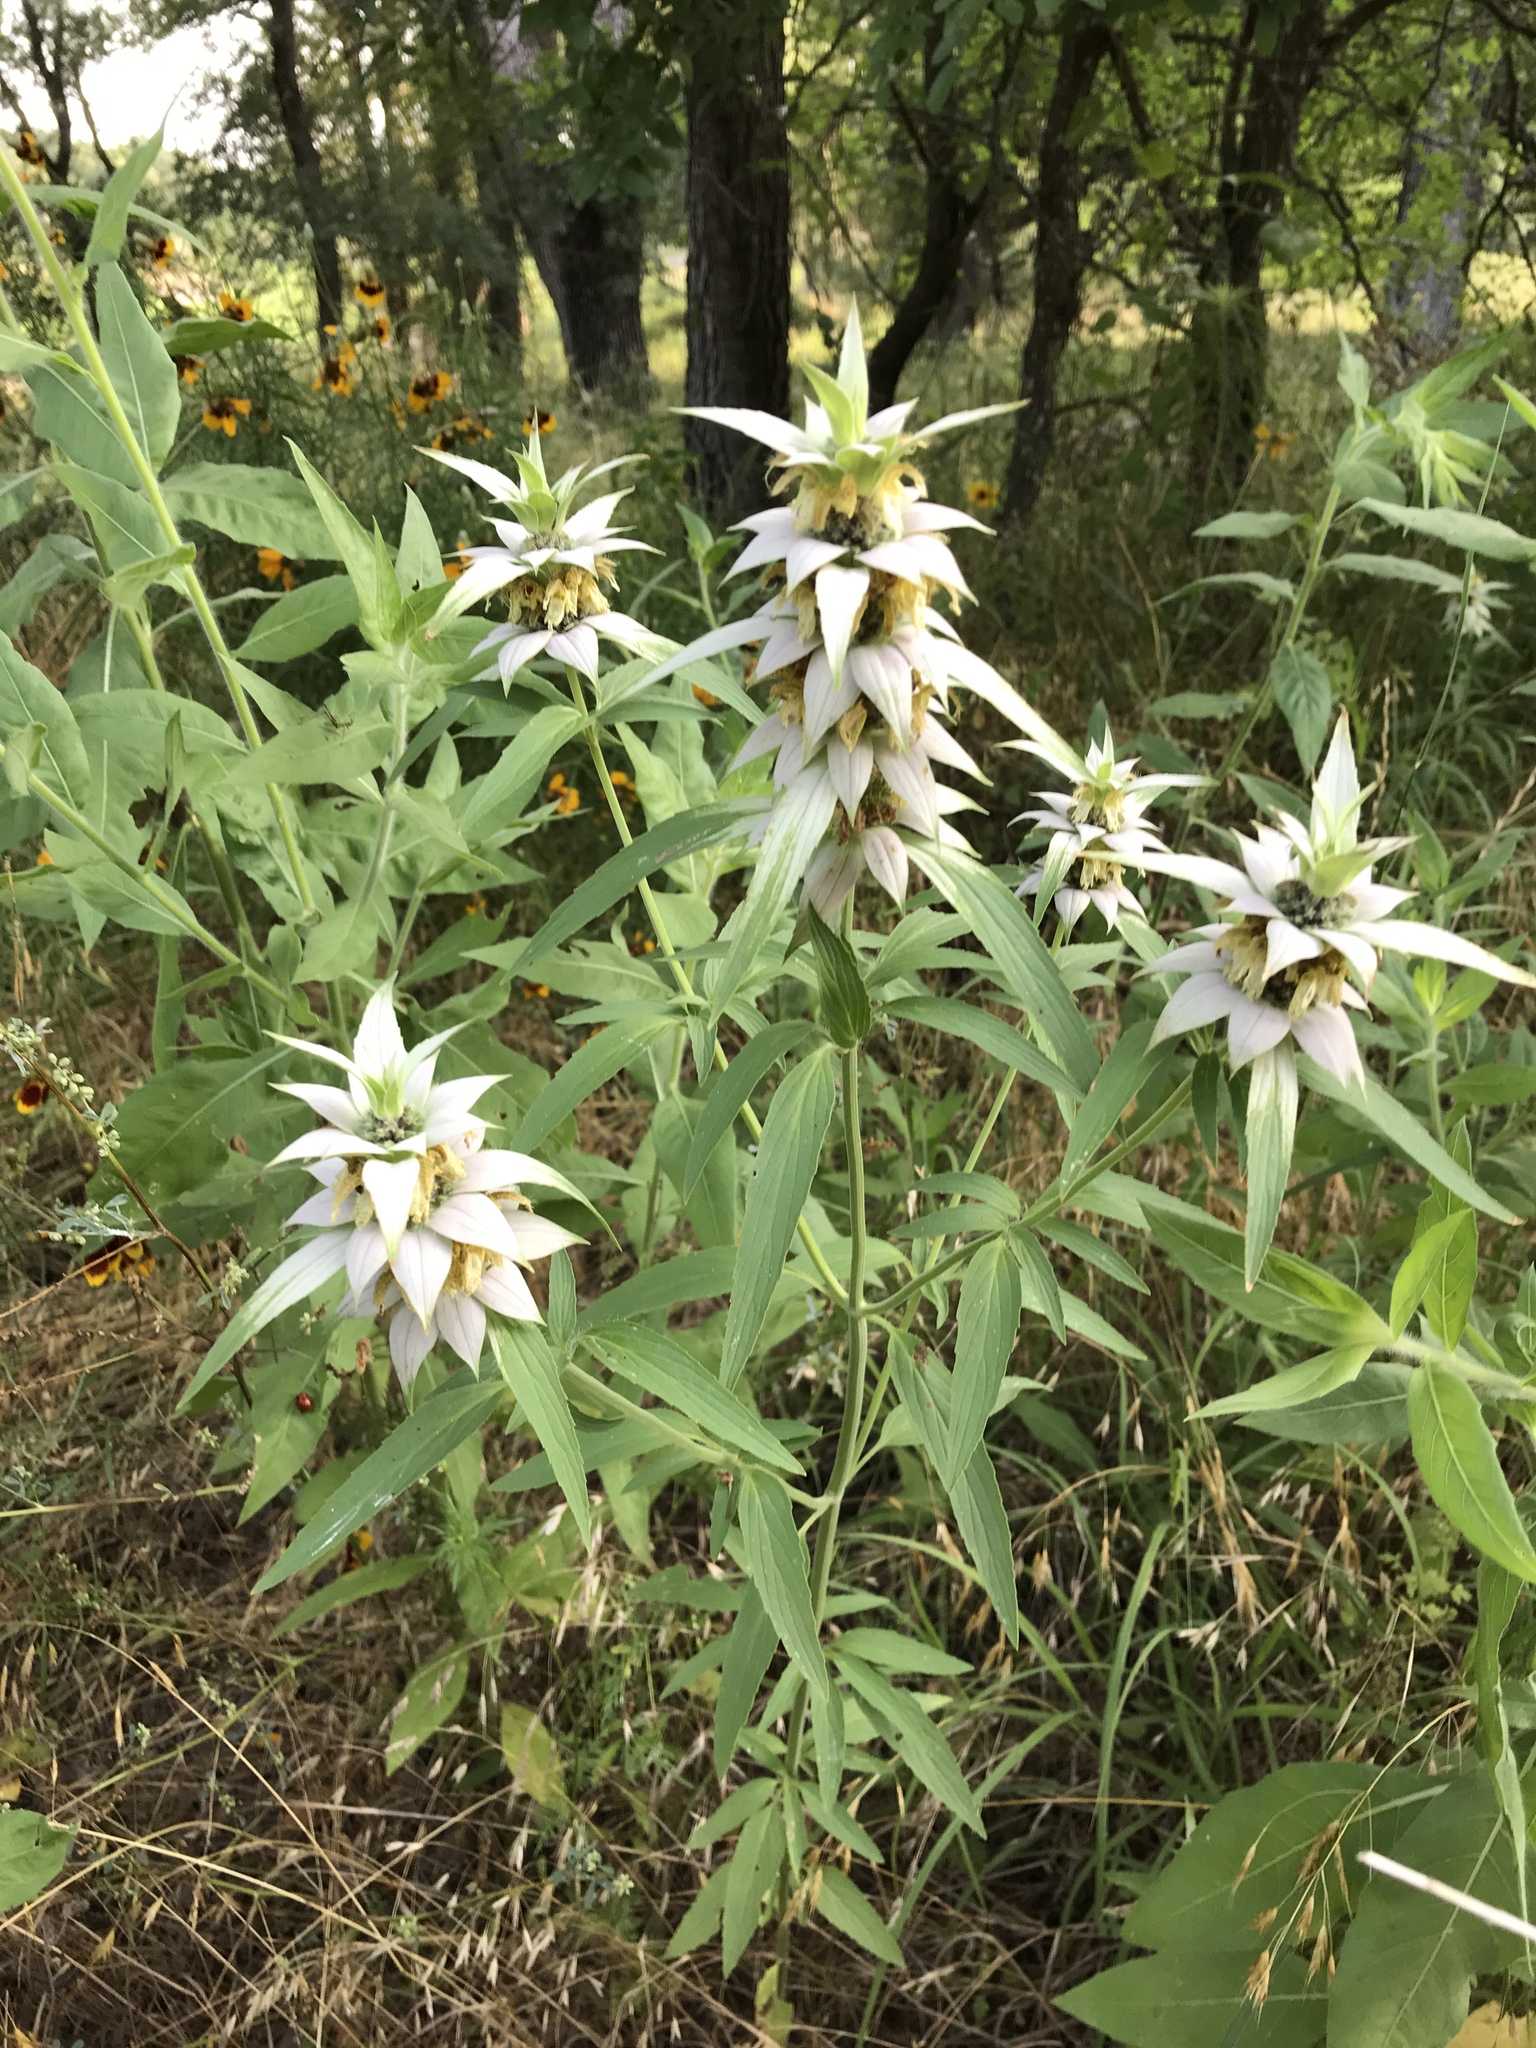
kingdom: Plantae
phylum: Tracheophyta
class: Magnoliopsida
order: Lamiales
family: Lamiaceae
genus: Monarda
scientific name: Monarda punctata
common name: Dotted monarda
